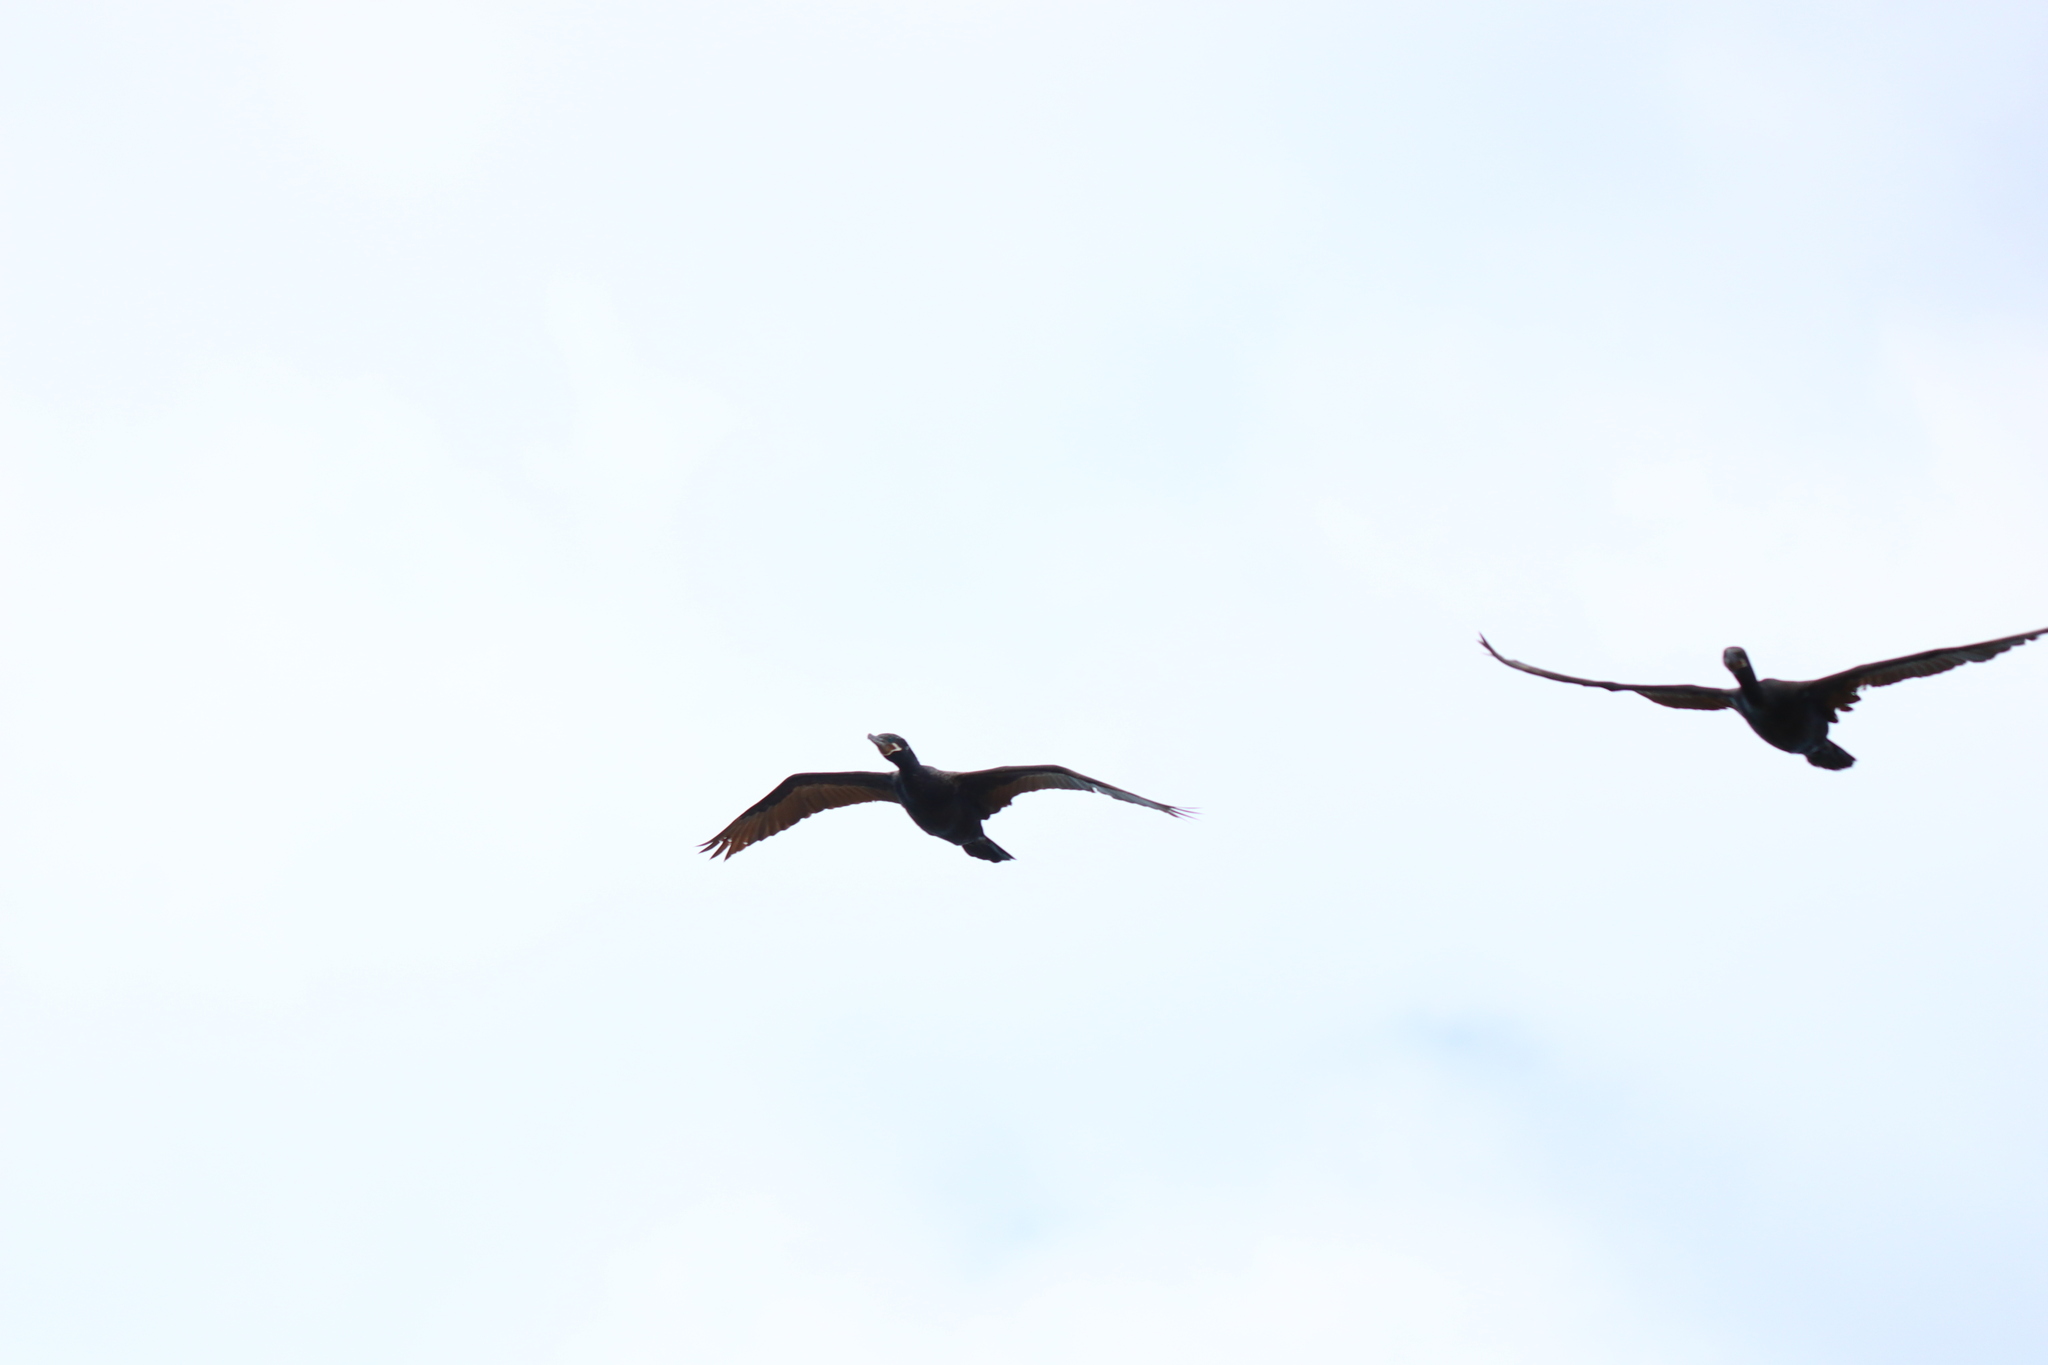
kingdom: Animalia
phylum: Chordata
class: Aves
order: Suliformes
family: Phalacrocoracidae
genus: Phalacrocorax
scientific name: Phalacrocorax brasilianus
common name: Neotropic cormorant
